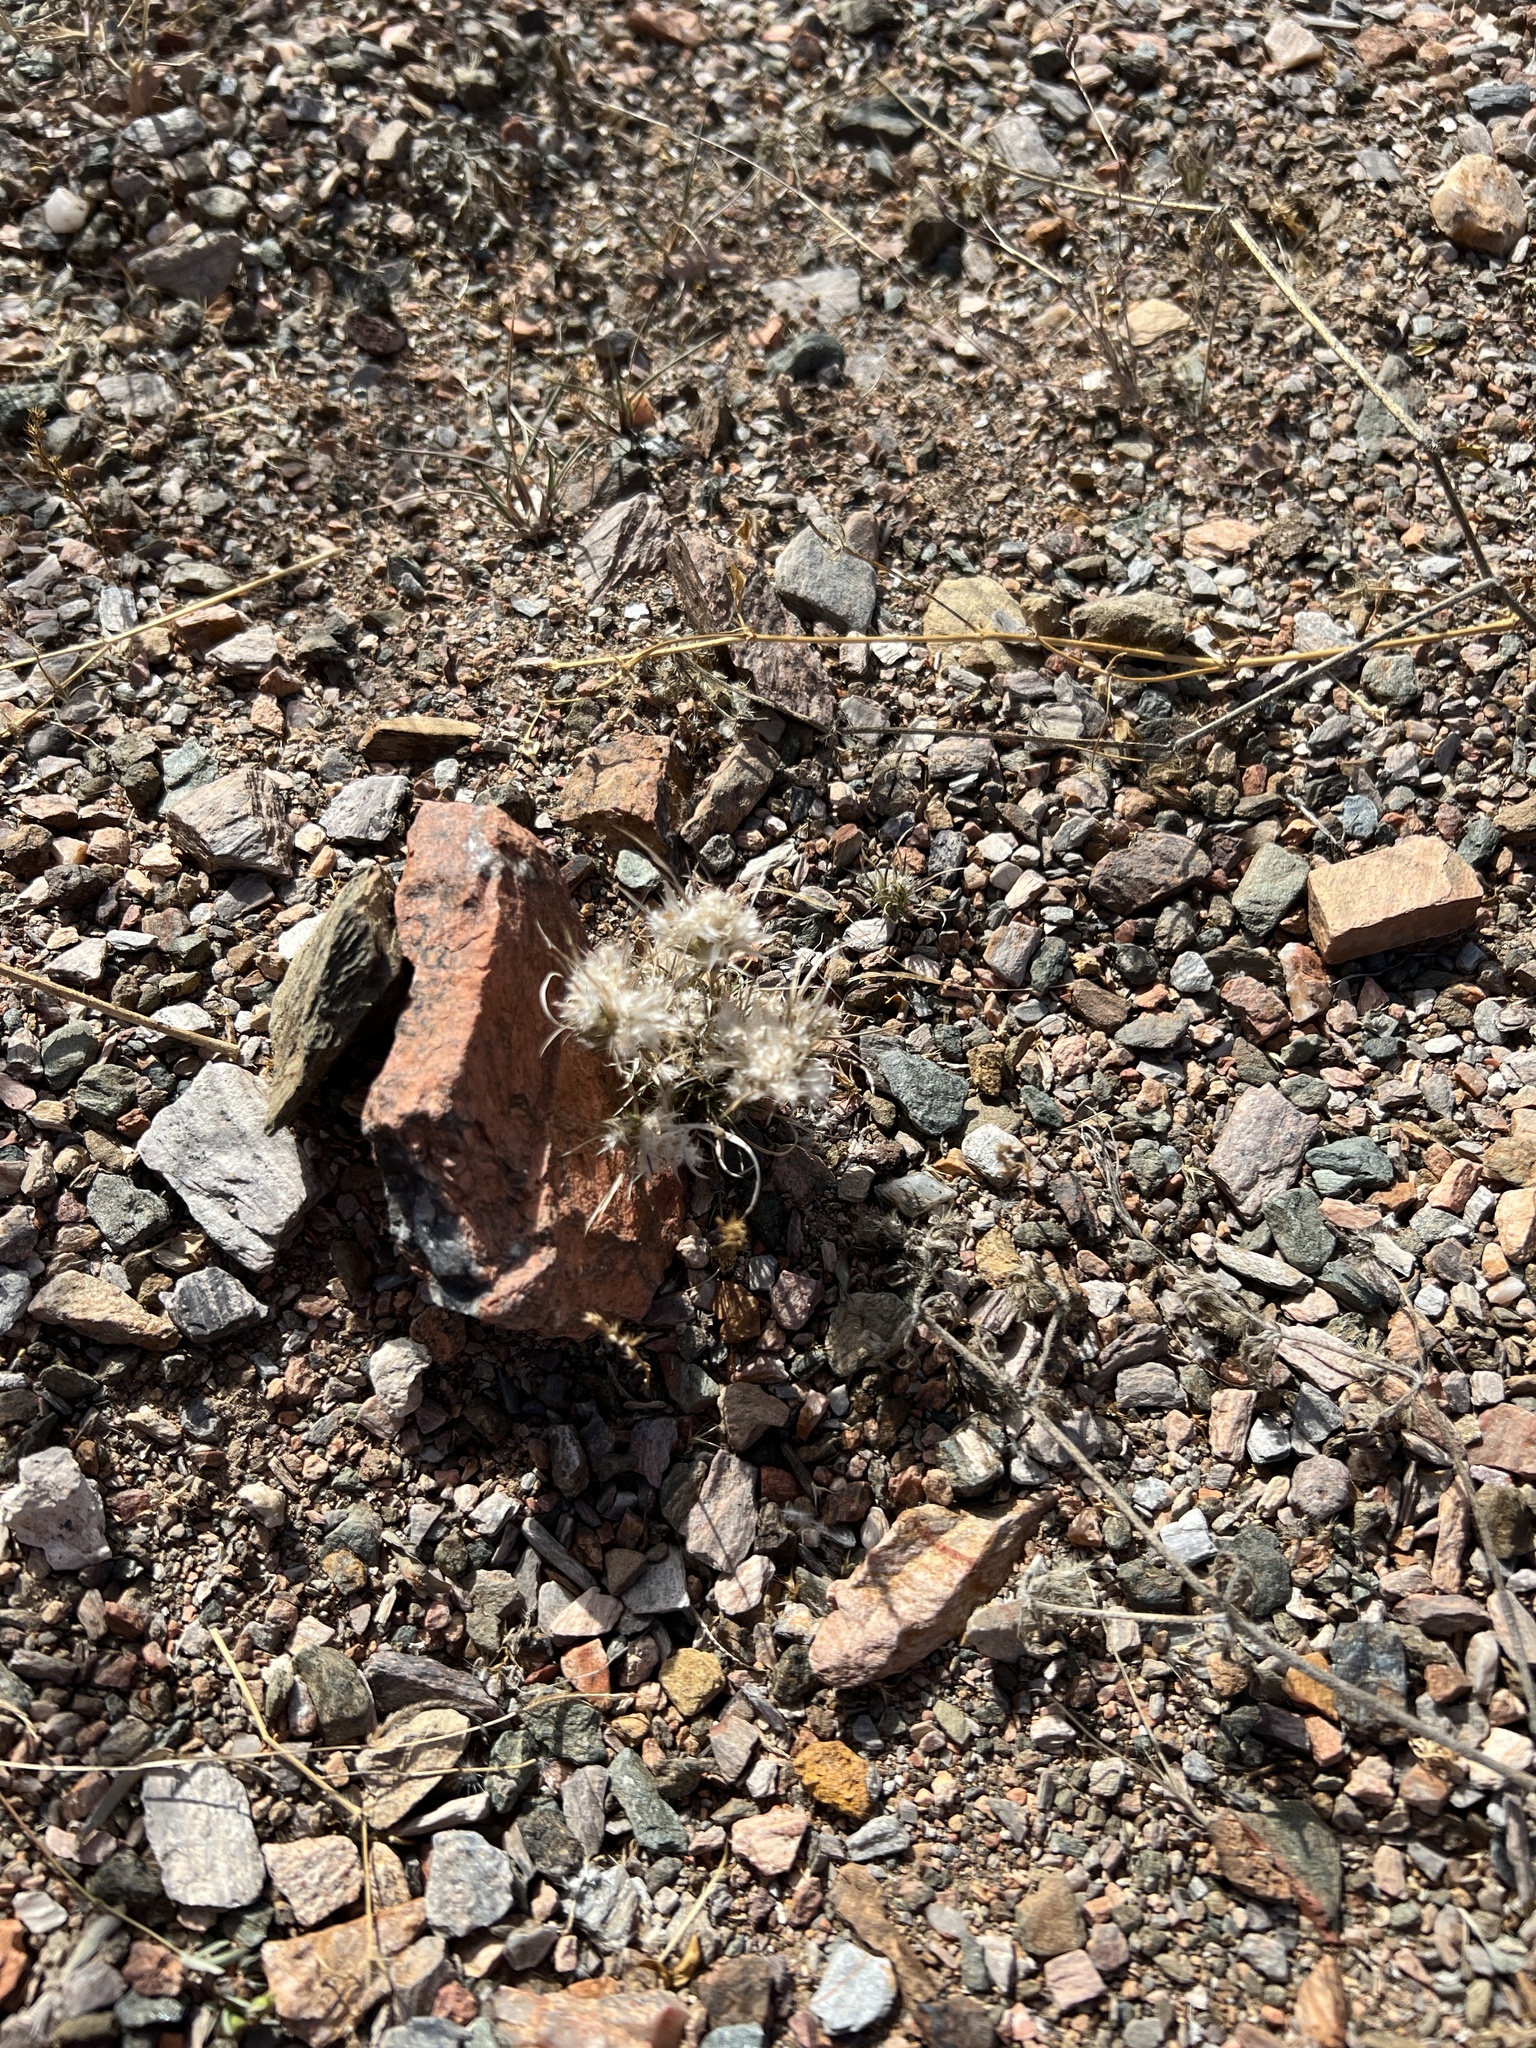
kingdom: Plantae
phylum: Tracheophyta
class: Liliopsida
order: Poales
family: Poaceae
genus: Dasyochloa
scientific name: Dasyochloa pulchella
